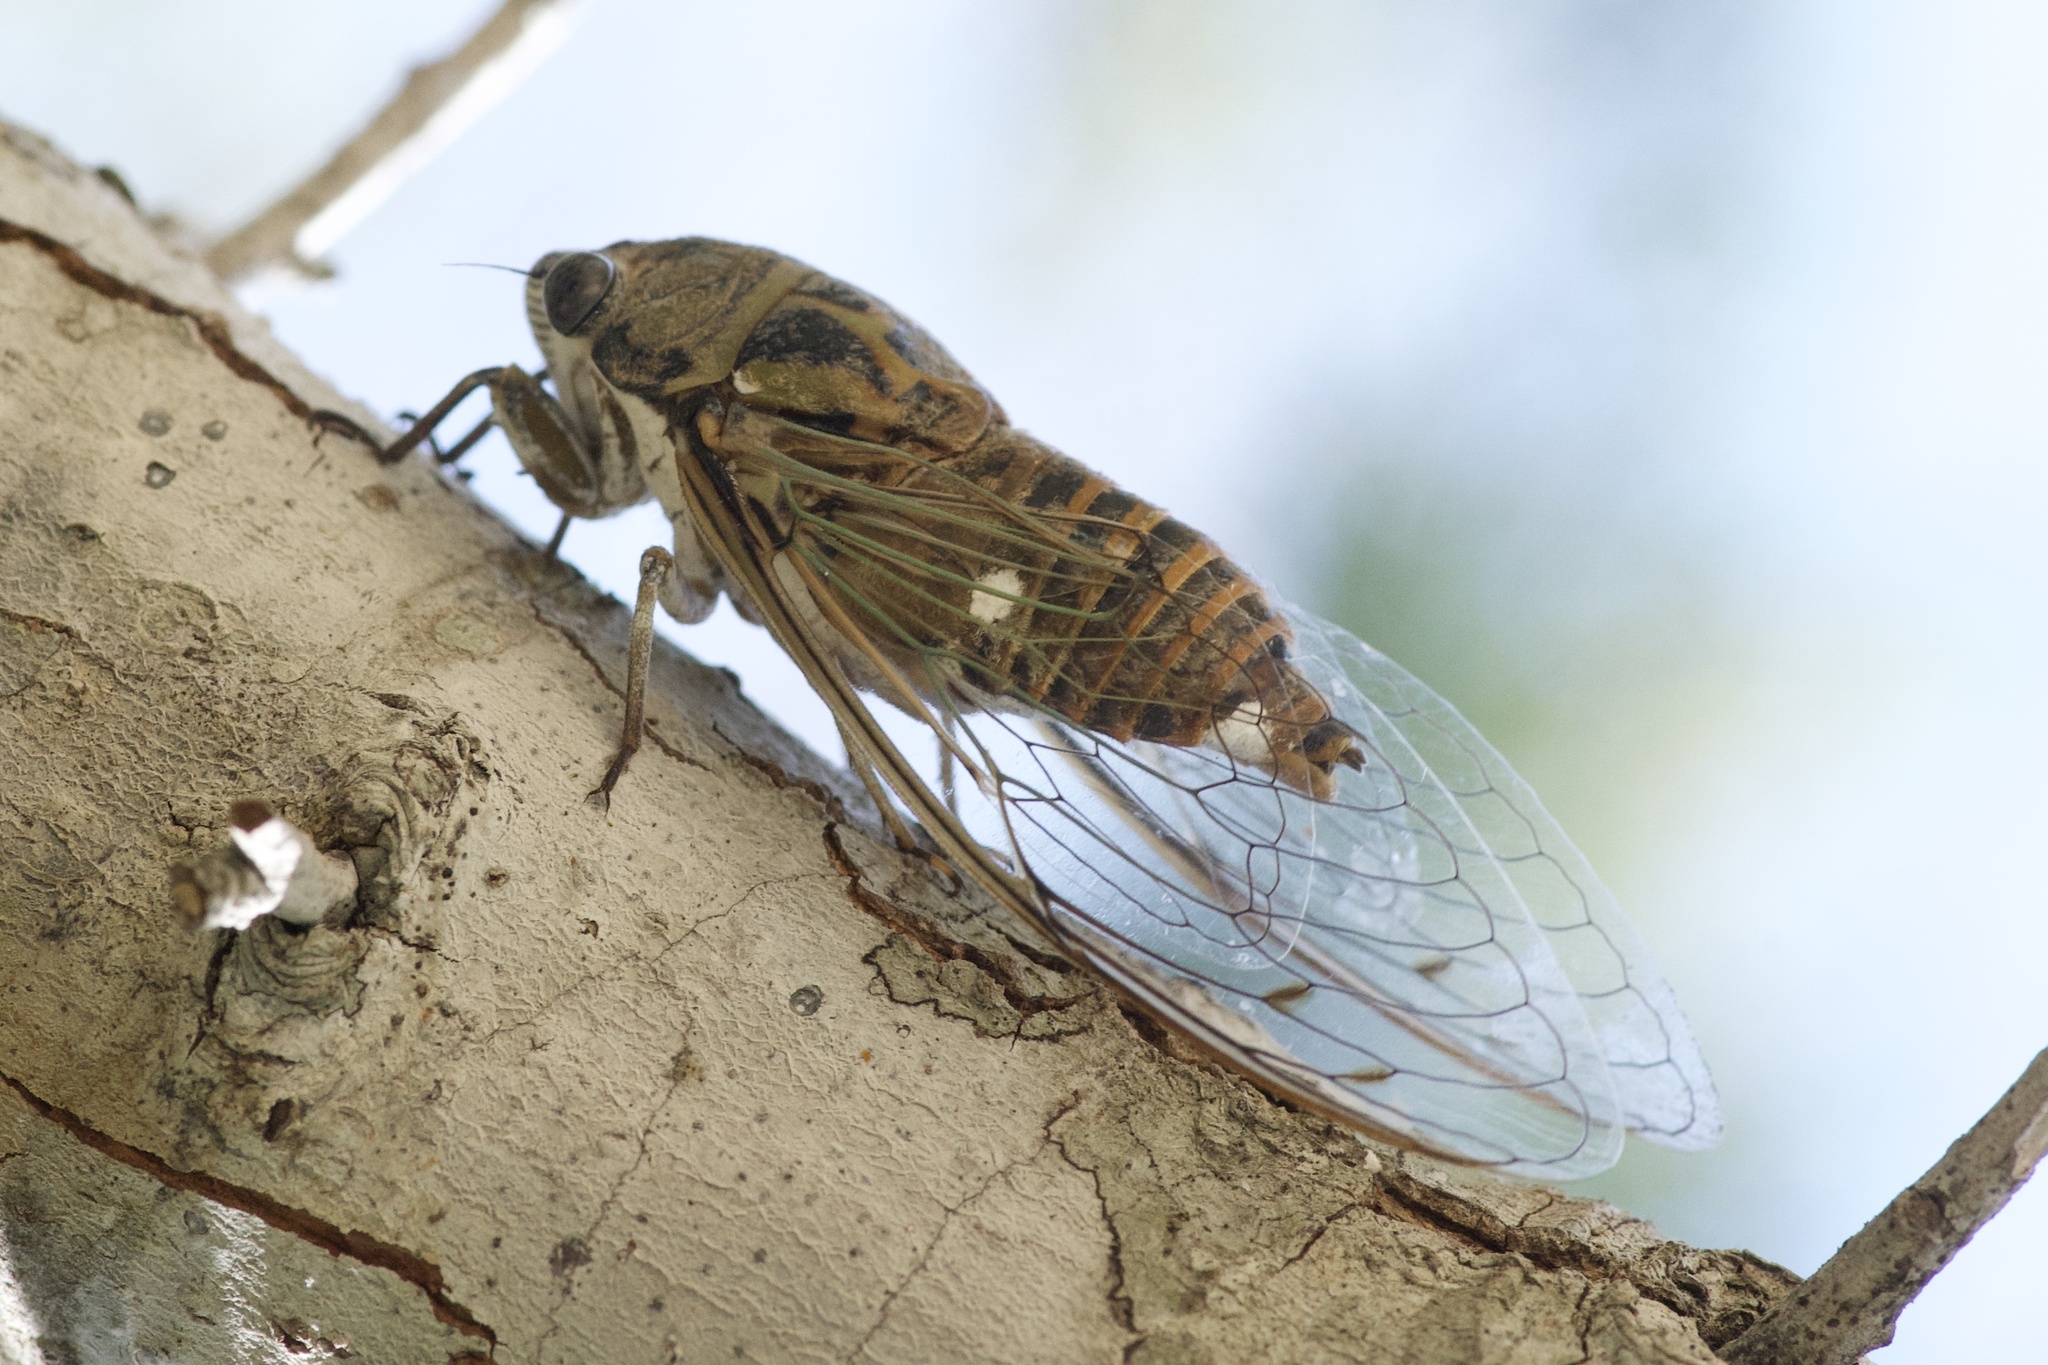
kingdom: Animalia
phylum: Arthropoda
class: Insecta
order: Hemiptera
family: Cicadidae
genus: Hadoa
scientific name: Hadoa texana
